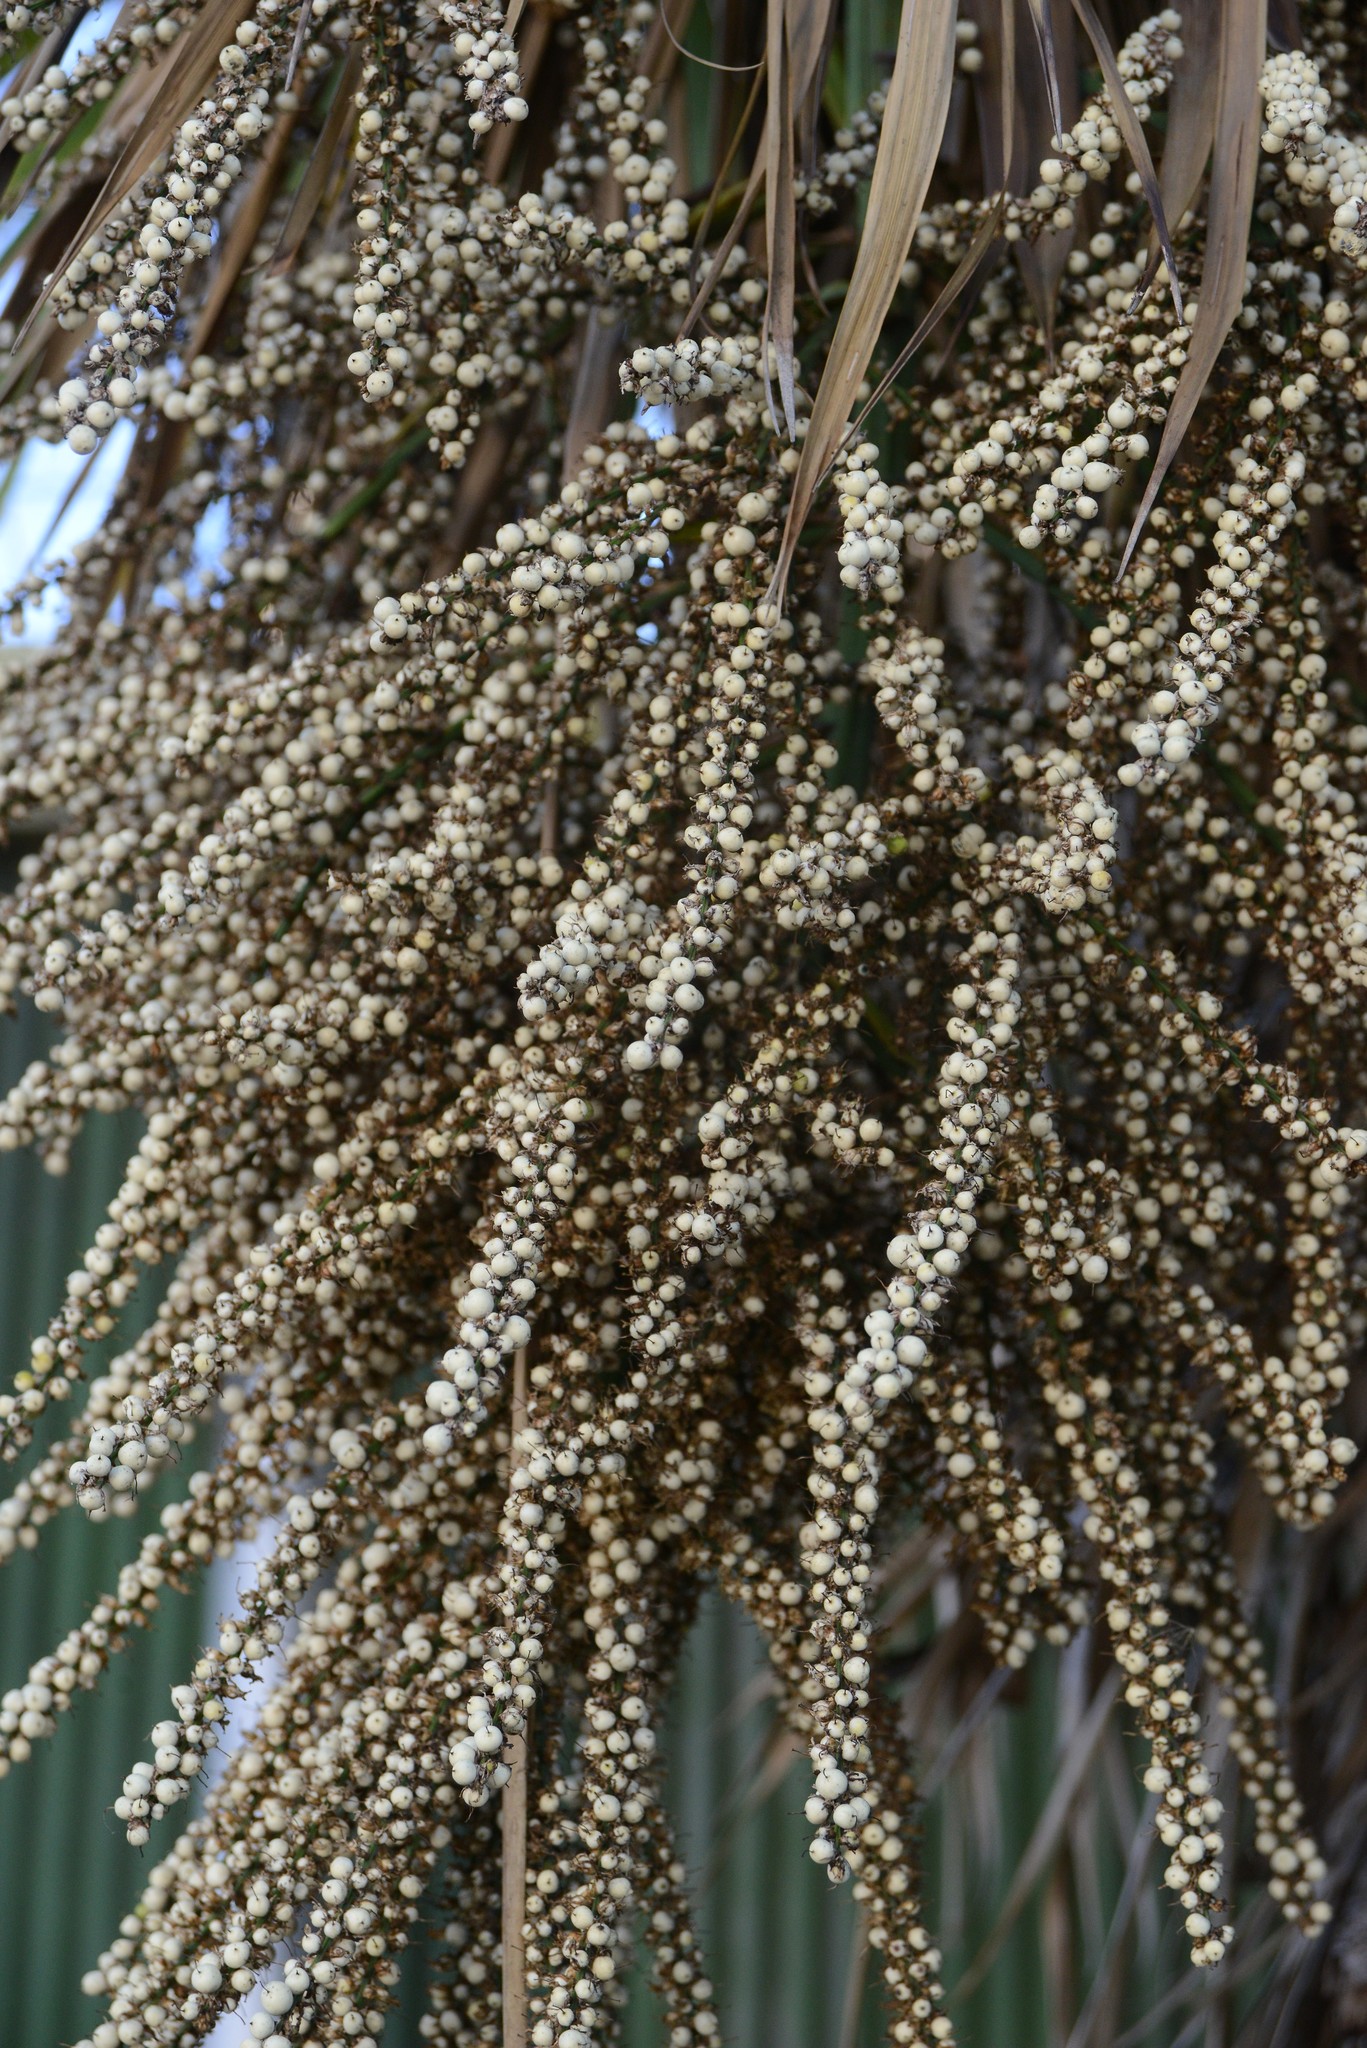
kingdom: Plantae
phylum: Tracheophyta
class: Liliopsida
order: Asparagales
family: Asparagaceae
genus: Cordyline
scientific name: Cordyline australis
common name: Cabbage-palm
